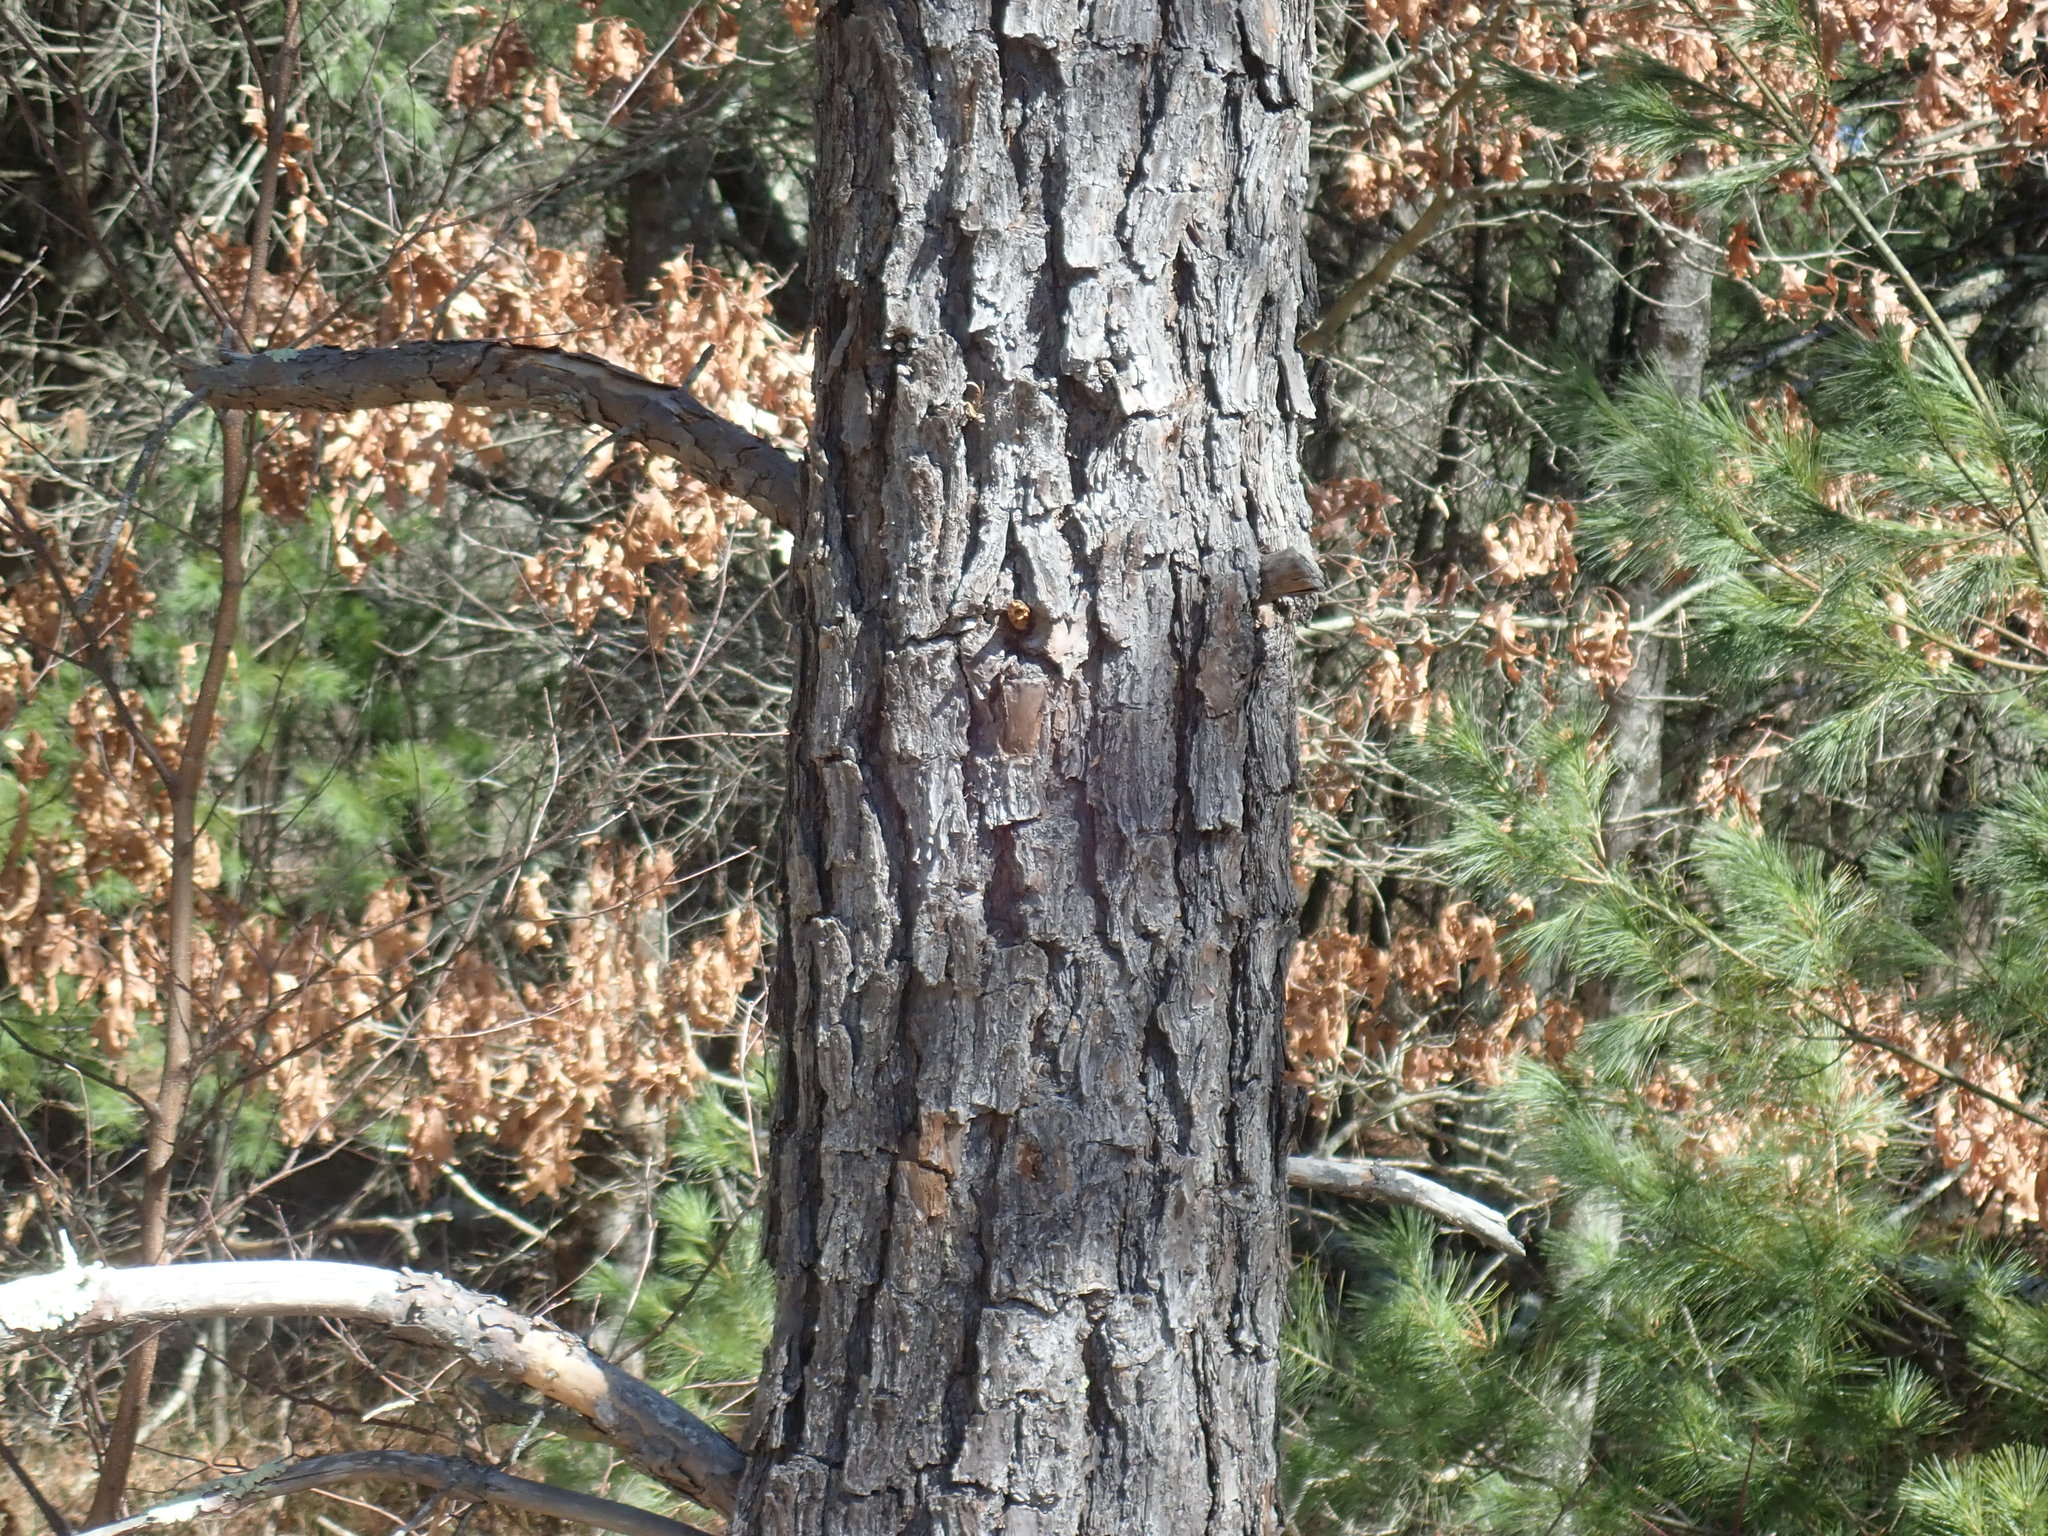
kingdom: Plantae
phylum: Tracheophyta
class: Pinopsida
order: Pinales
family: Pinaceae
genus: Pinus
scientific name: Pinus rigida
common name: Pitch pine
